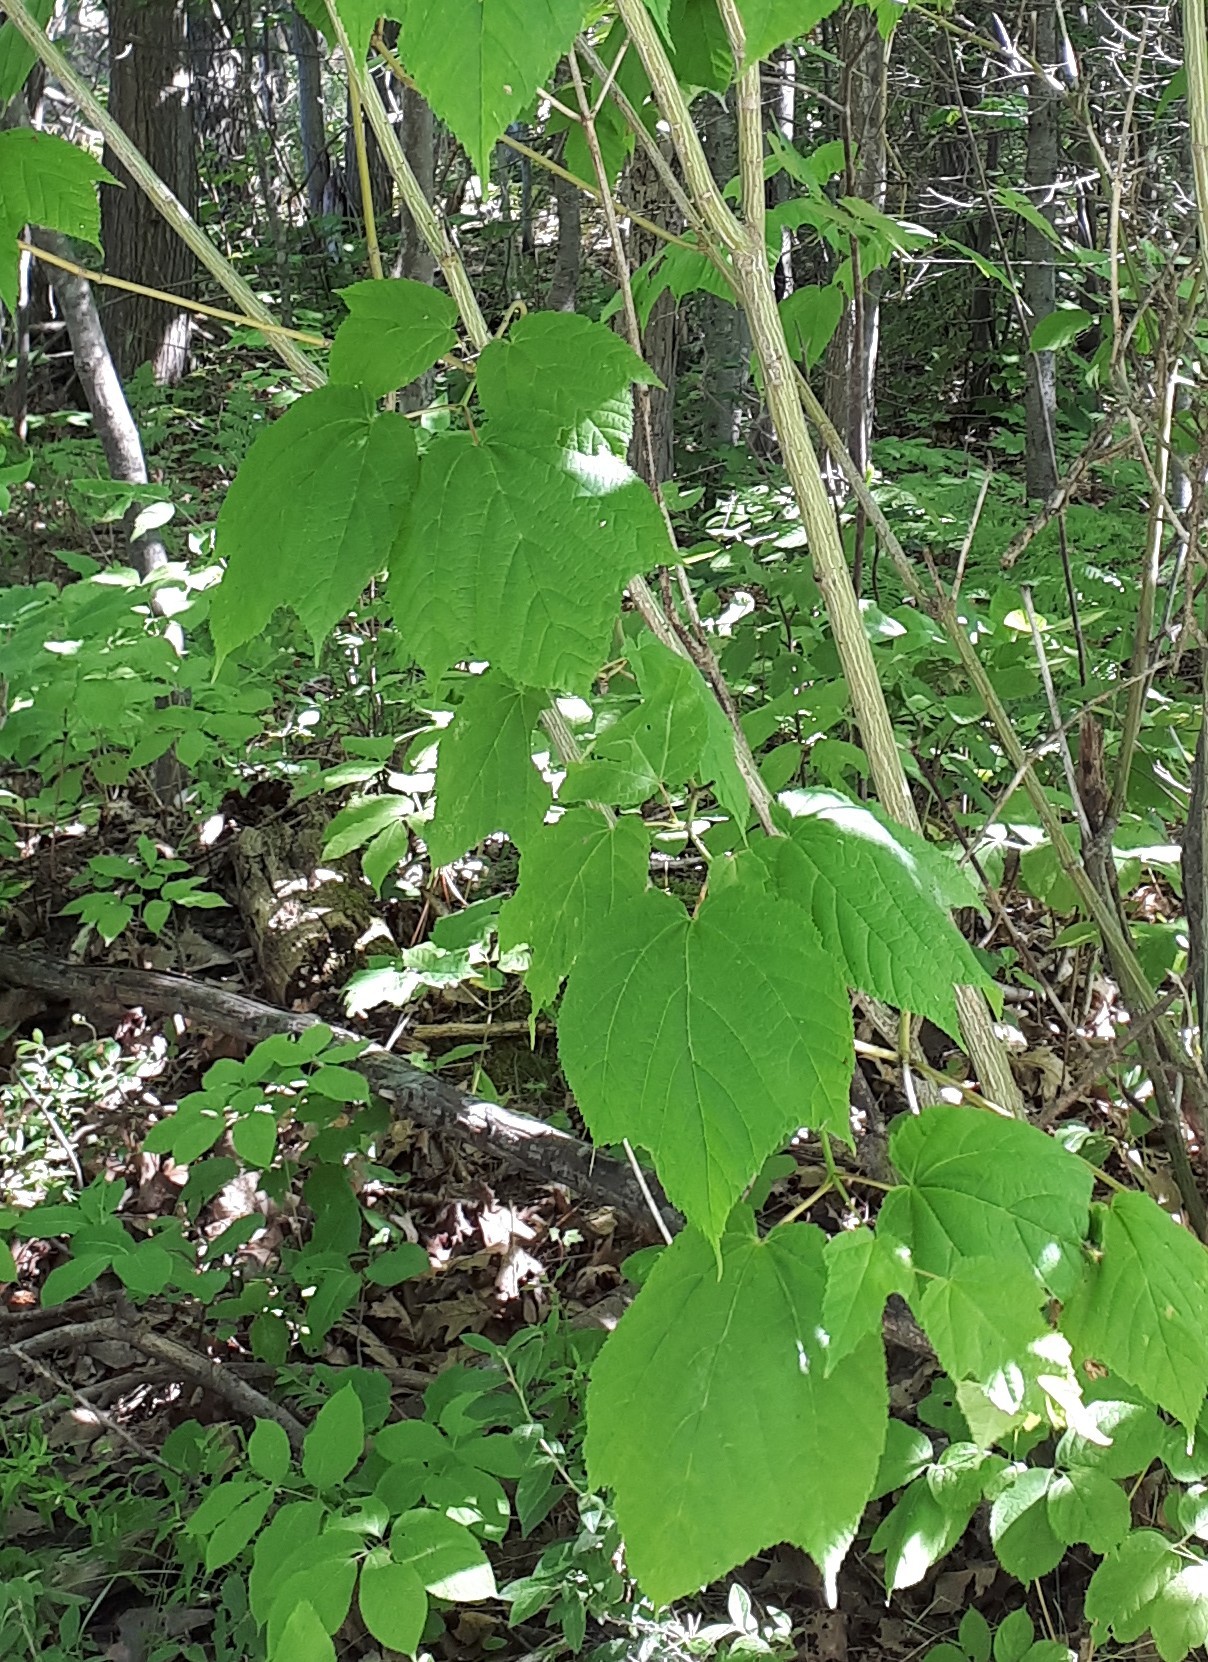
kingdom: Plantae
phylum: Tracheophyta
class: Magnoliopsida
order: Sapindales
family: Sapindaceae
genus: Acer
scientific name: Acer pensylvanicum
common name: Moosewood
